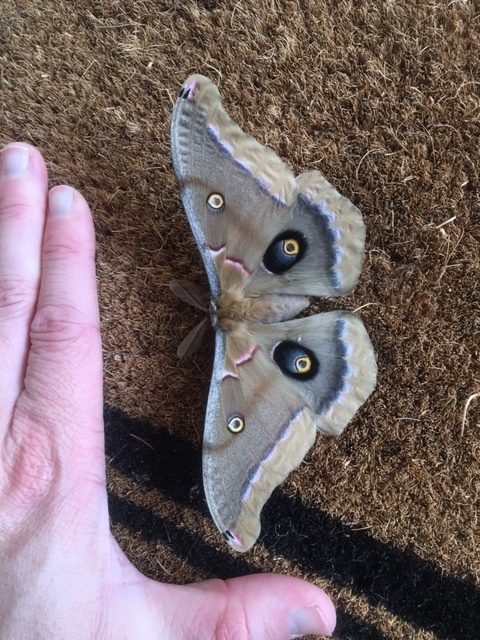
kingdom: Animalia
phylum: Arthropoda
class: Insecta
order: Lepidoptera
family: Saturniidae
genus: Antheraea
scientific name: Antheraea polyphemus
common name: Polyphemus moth
